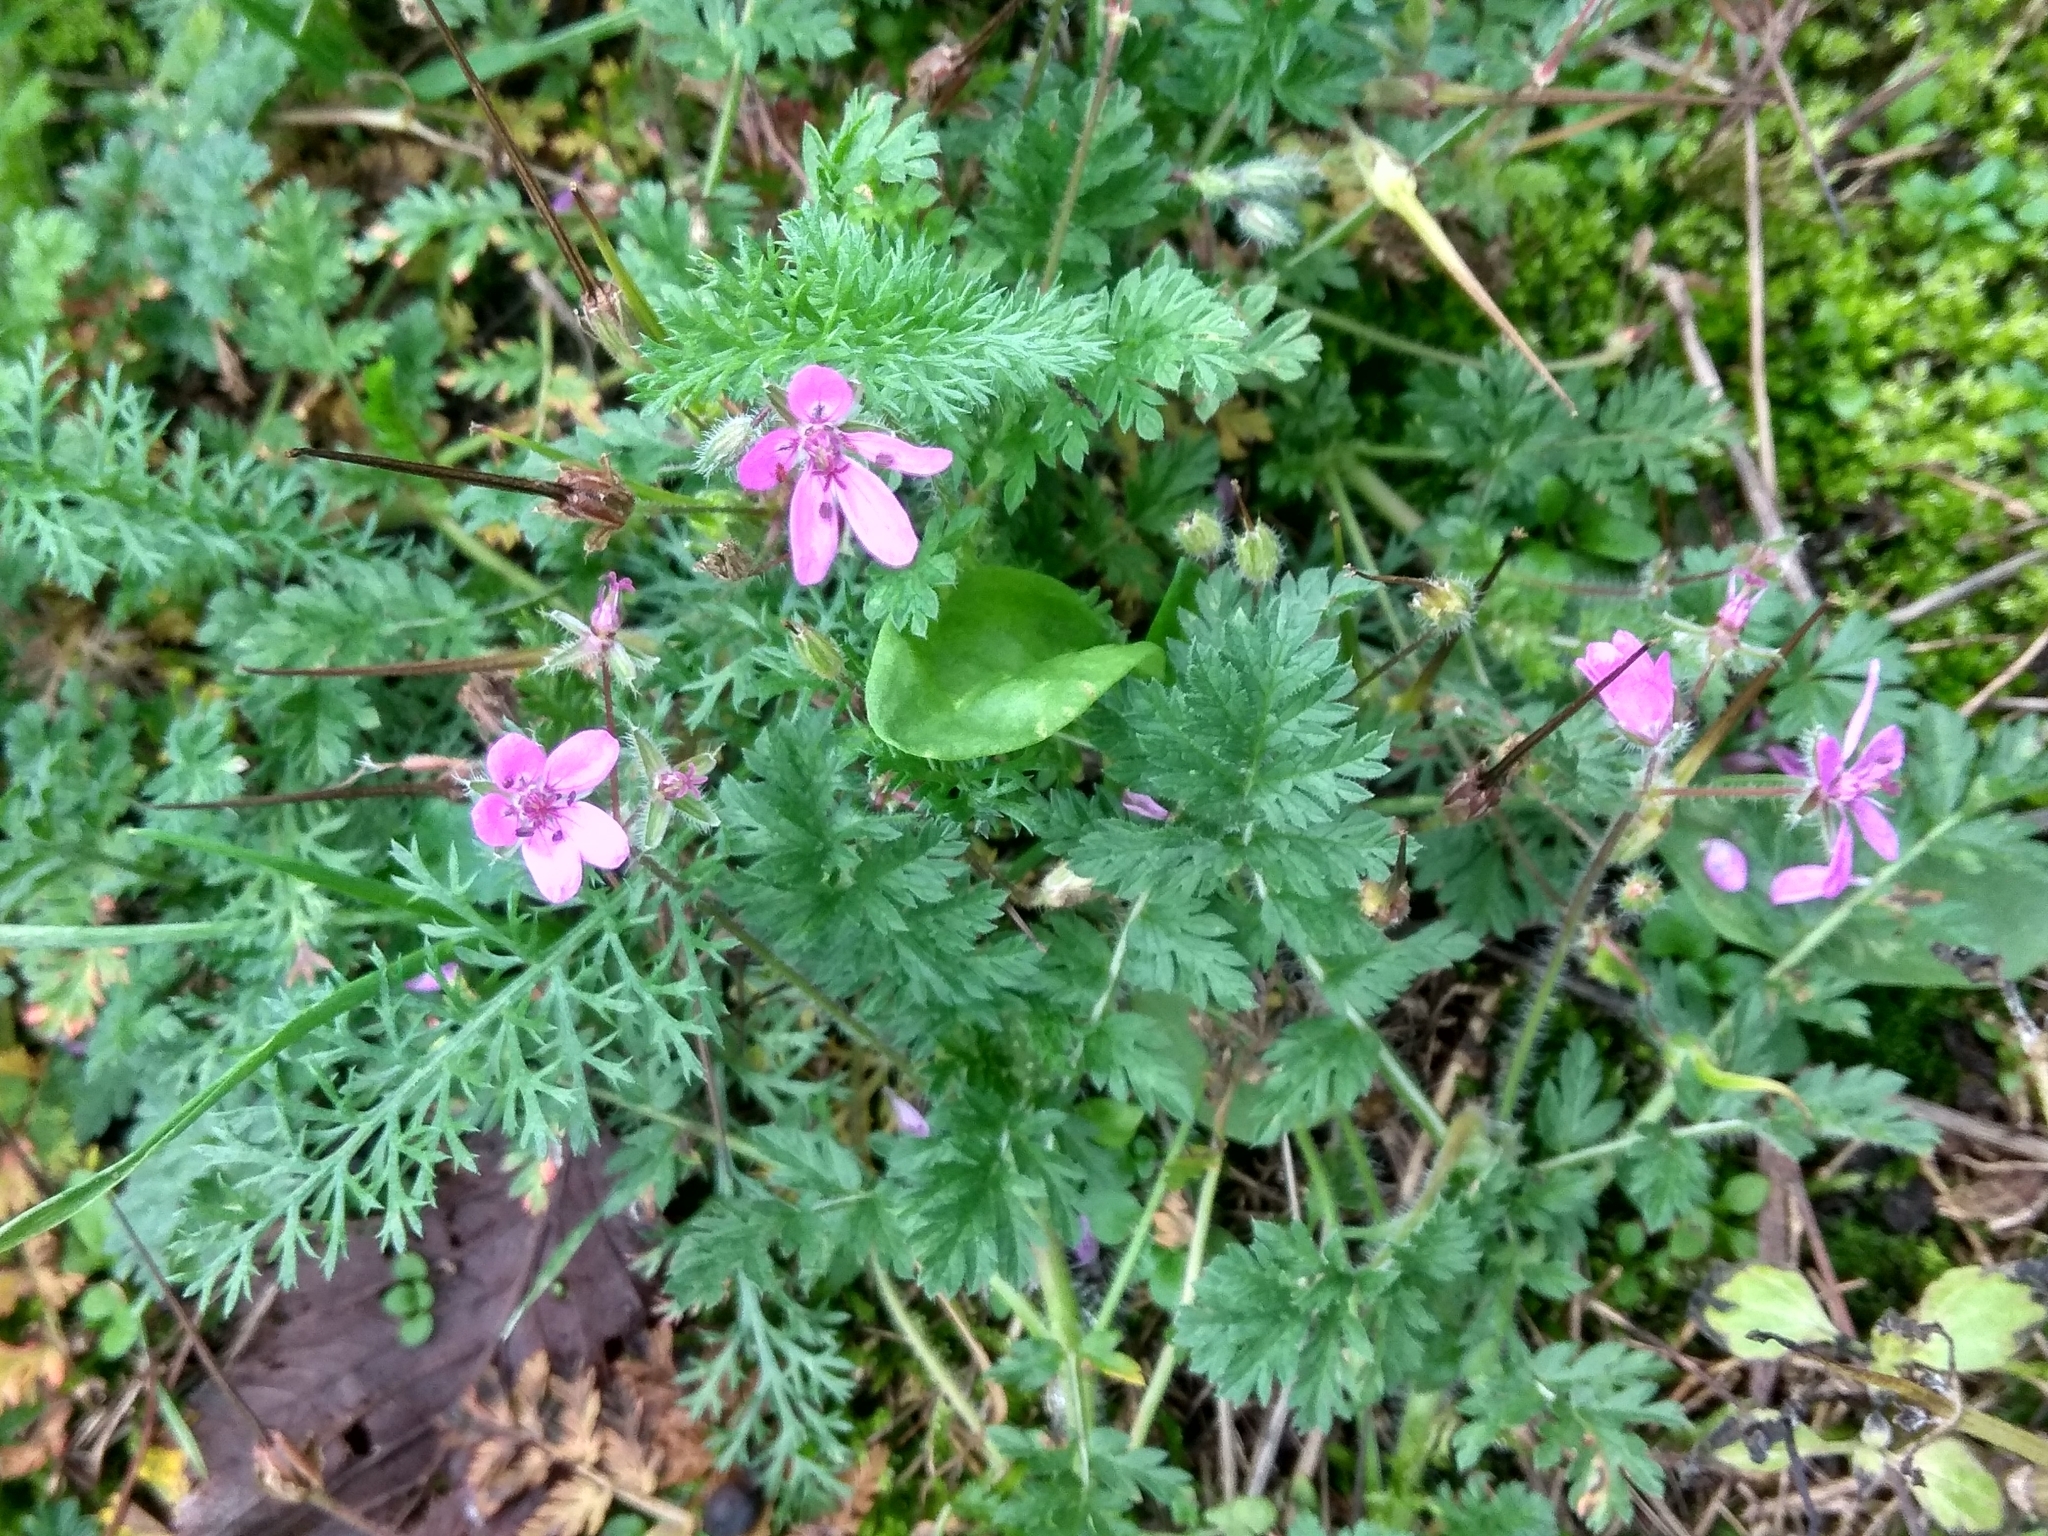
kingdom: Plantae
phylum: Tracheophyta
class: Magnoliopsida
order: Geraniales
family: Geraniaceae
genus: Erodium
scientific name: Erodium cicutarium
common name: Common stork's-bill
